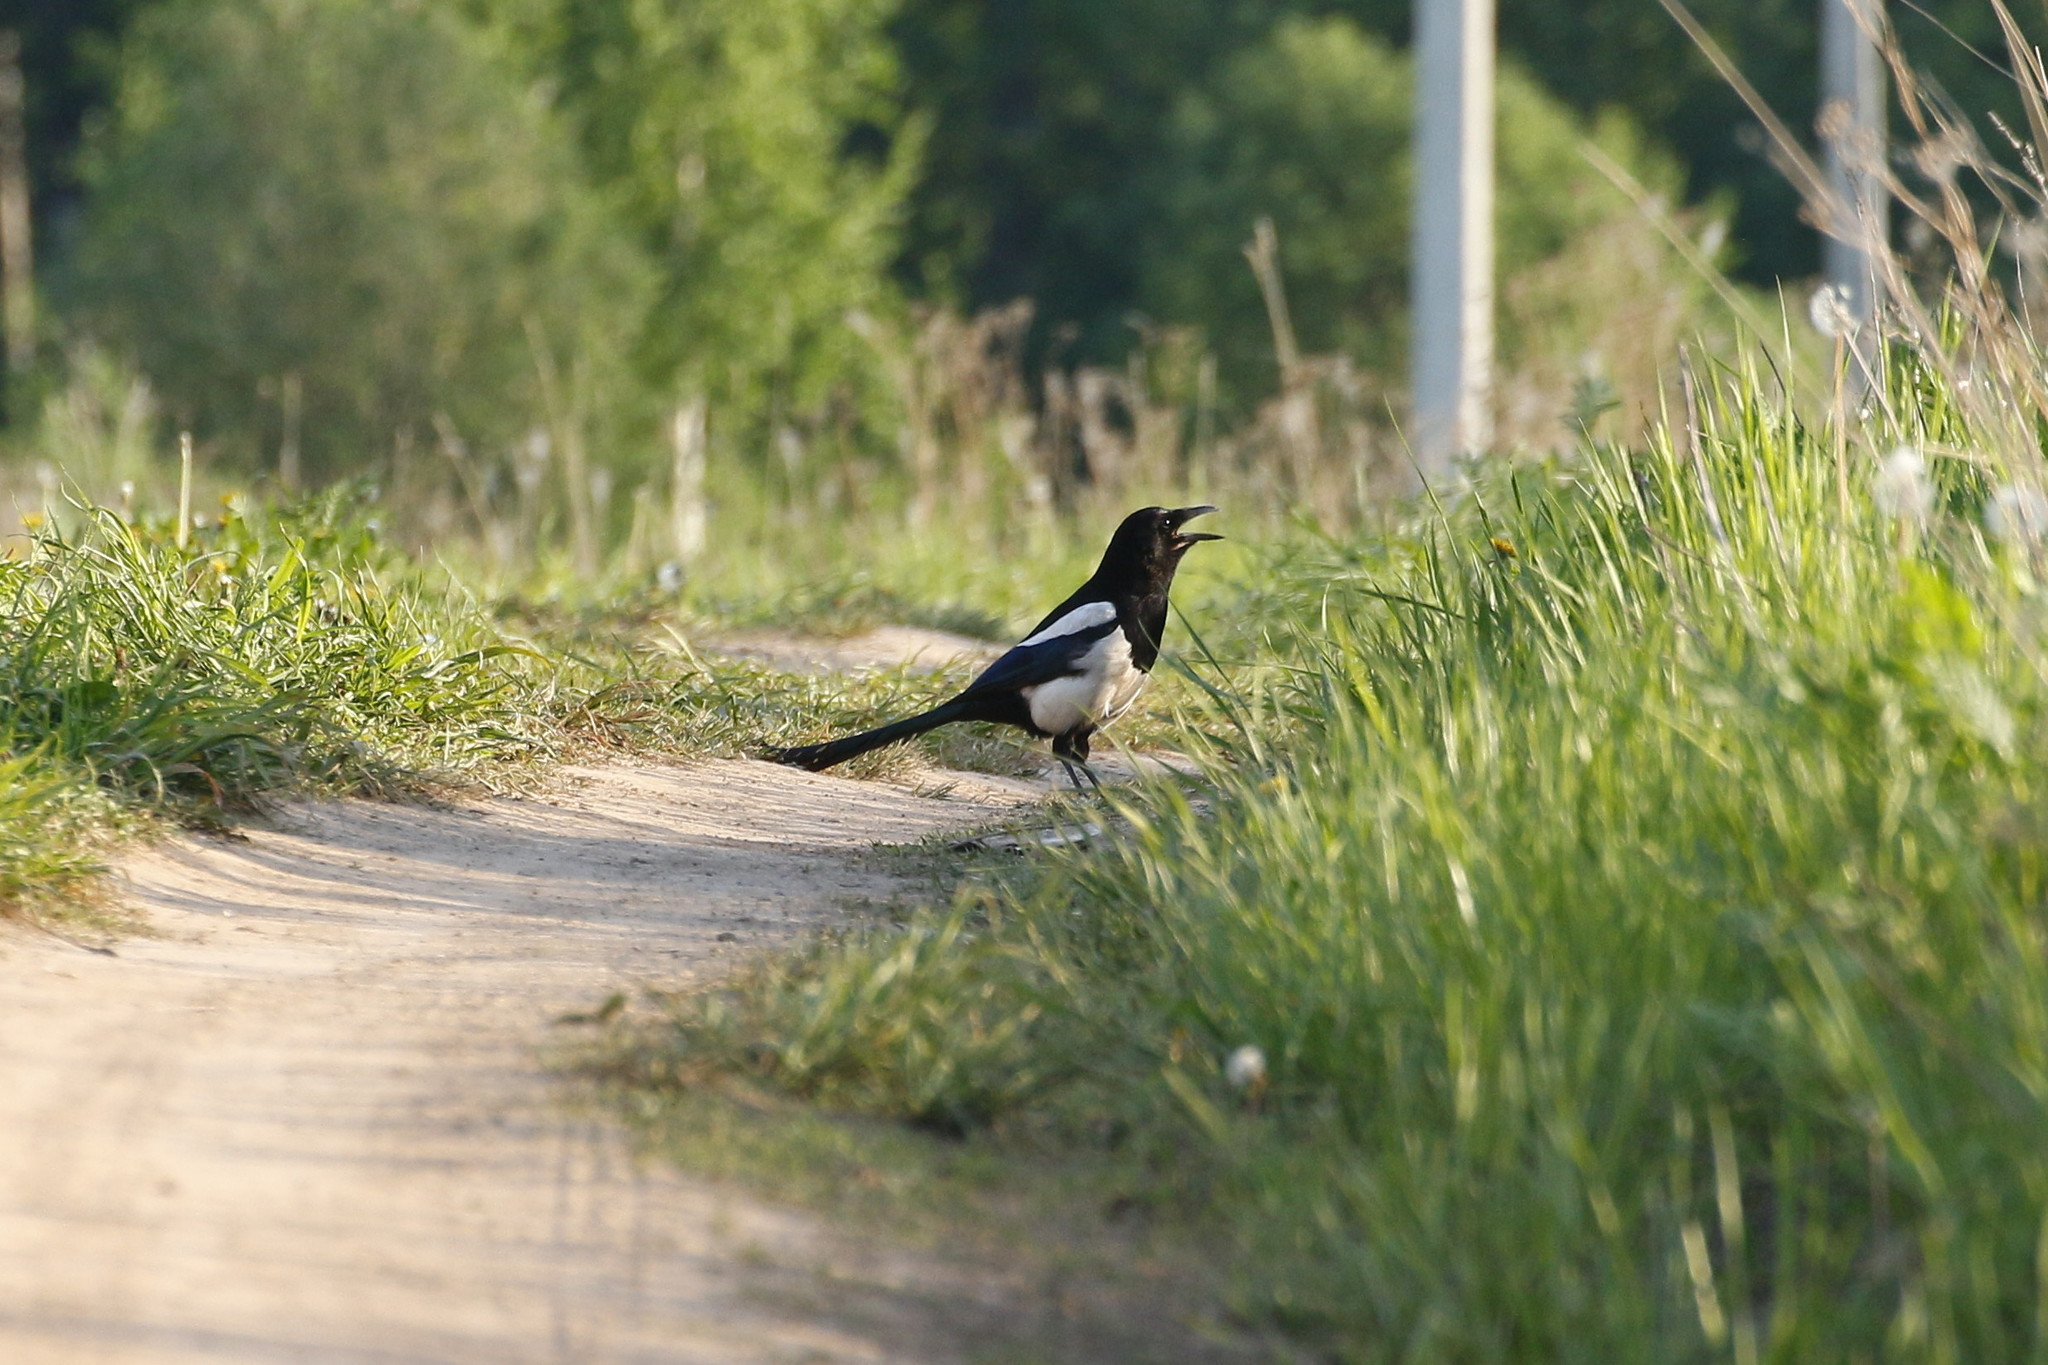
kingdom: Animalia
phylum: Chordata
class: Aves
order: Passeriformes
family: Corvidae
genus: Pica
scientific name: Pica pica
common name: Eurasian magpie
